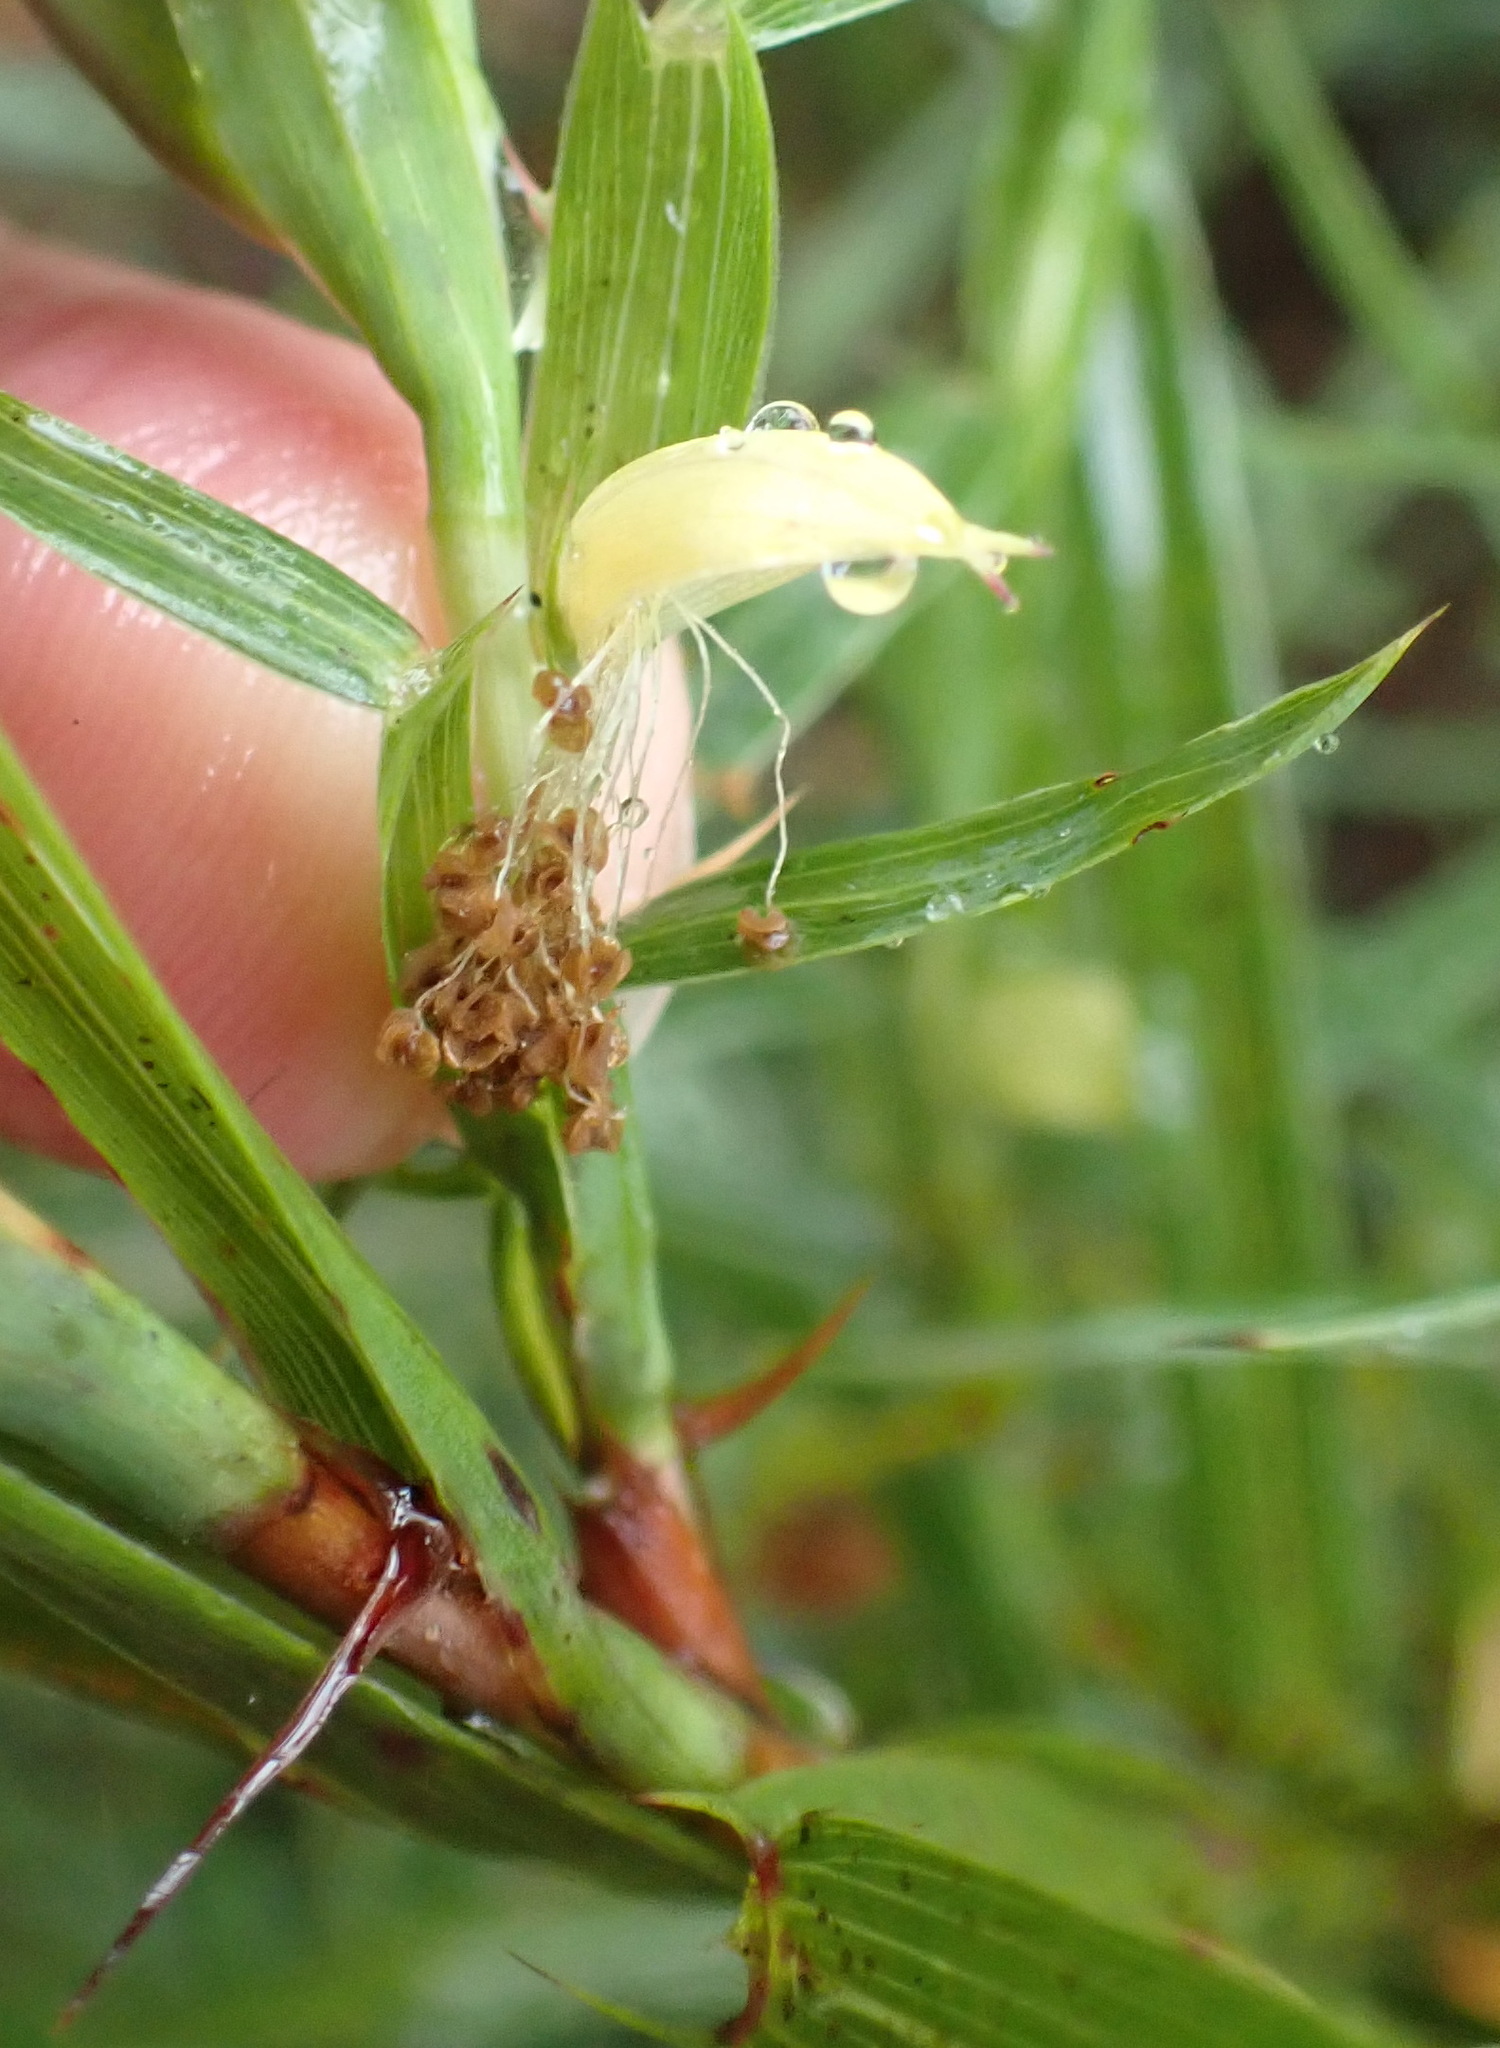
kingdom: Plantae
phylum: Tracheophyta
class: Magnoliopsida
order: Rosales
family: Rosaceae
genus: Cliffortia
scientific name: Cliffortia graminea
